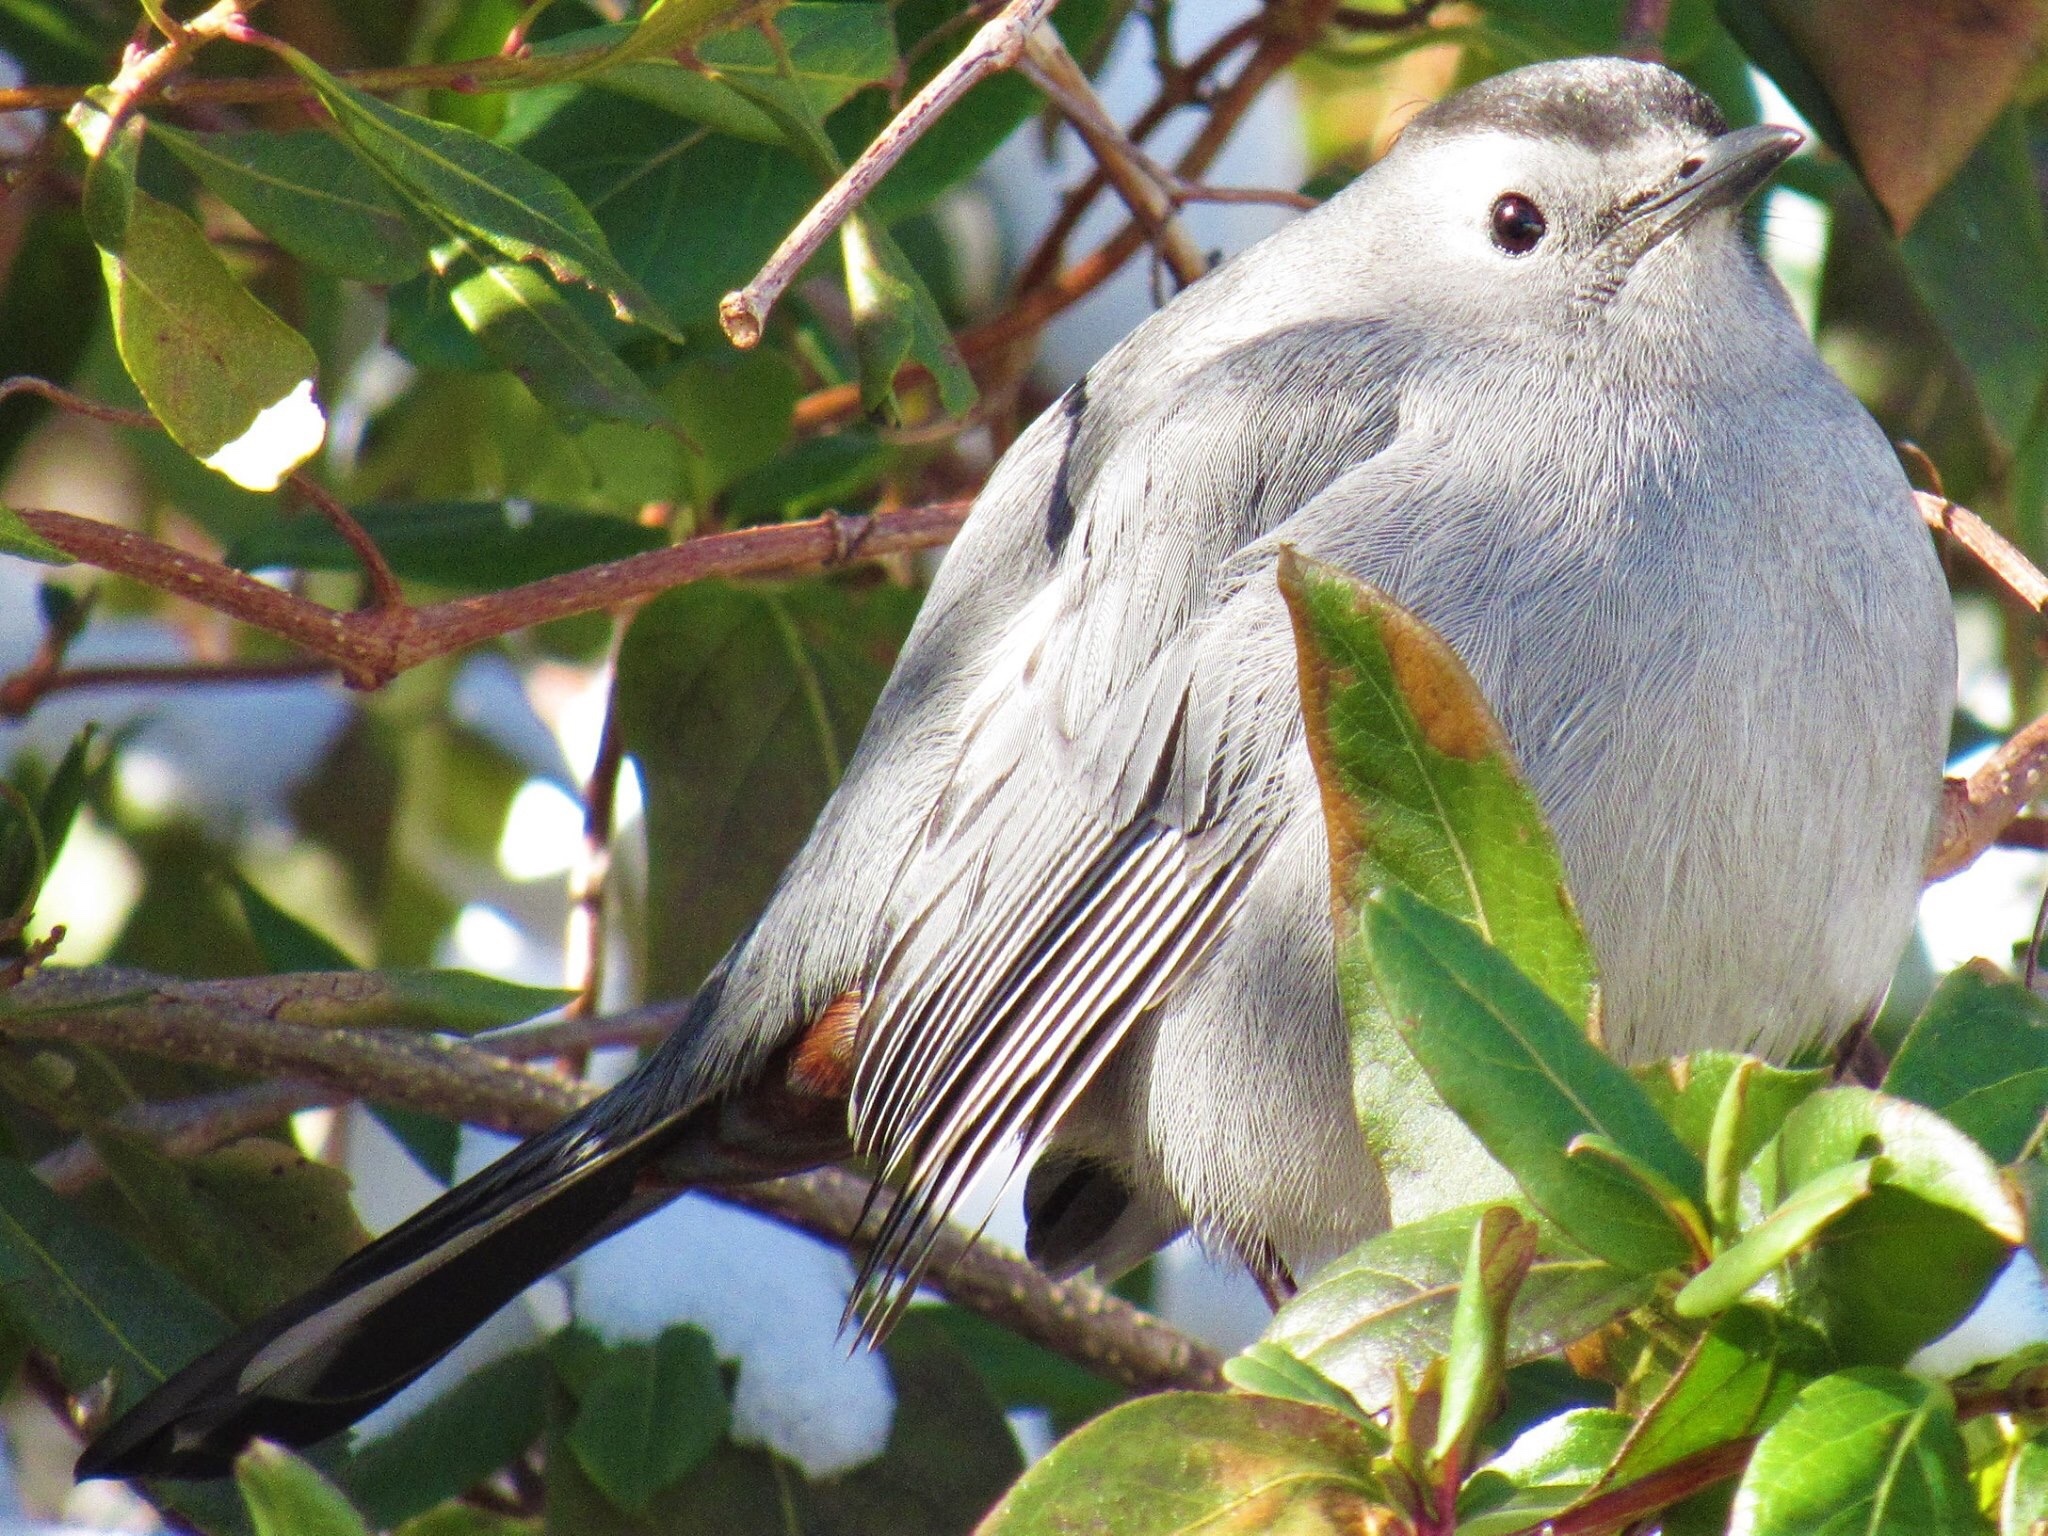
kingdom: Animalia
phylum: Chordata
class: Aves
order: Passeriformes
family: Mimidae
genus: Dumetella
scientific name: Dumetella carolinensis
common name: Gray catbird
